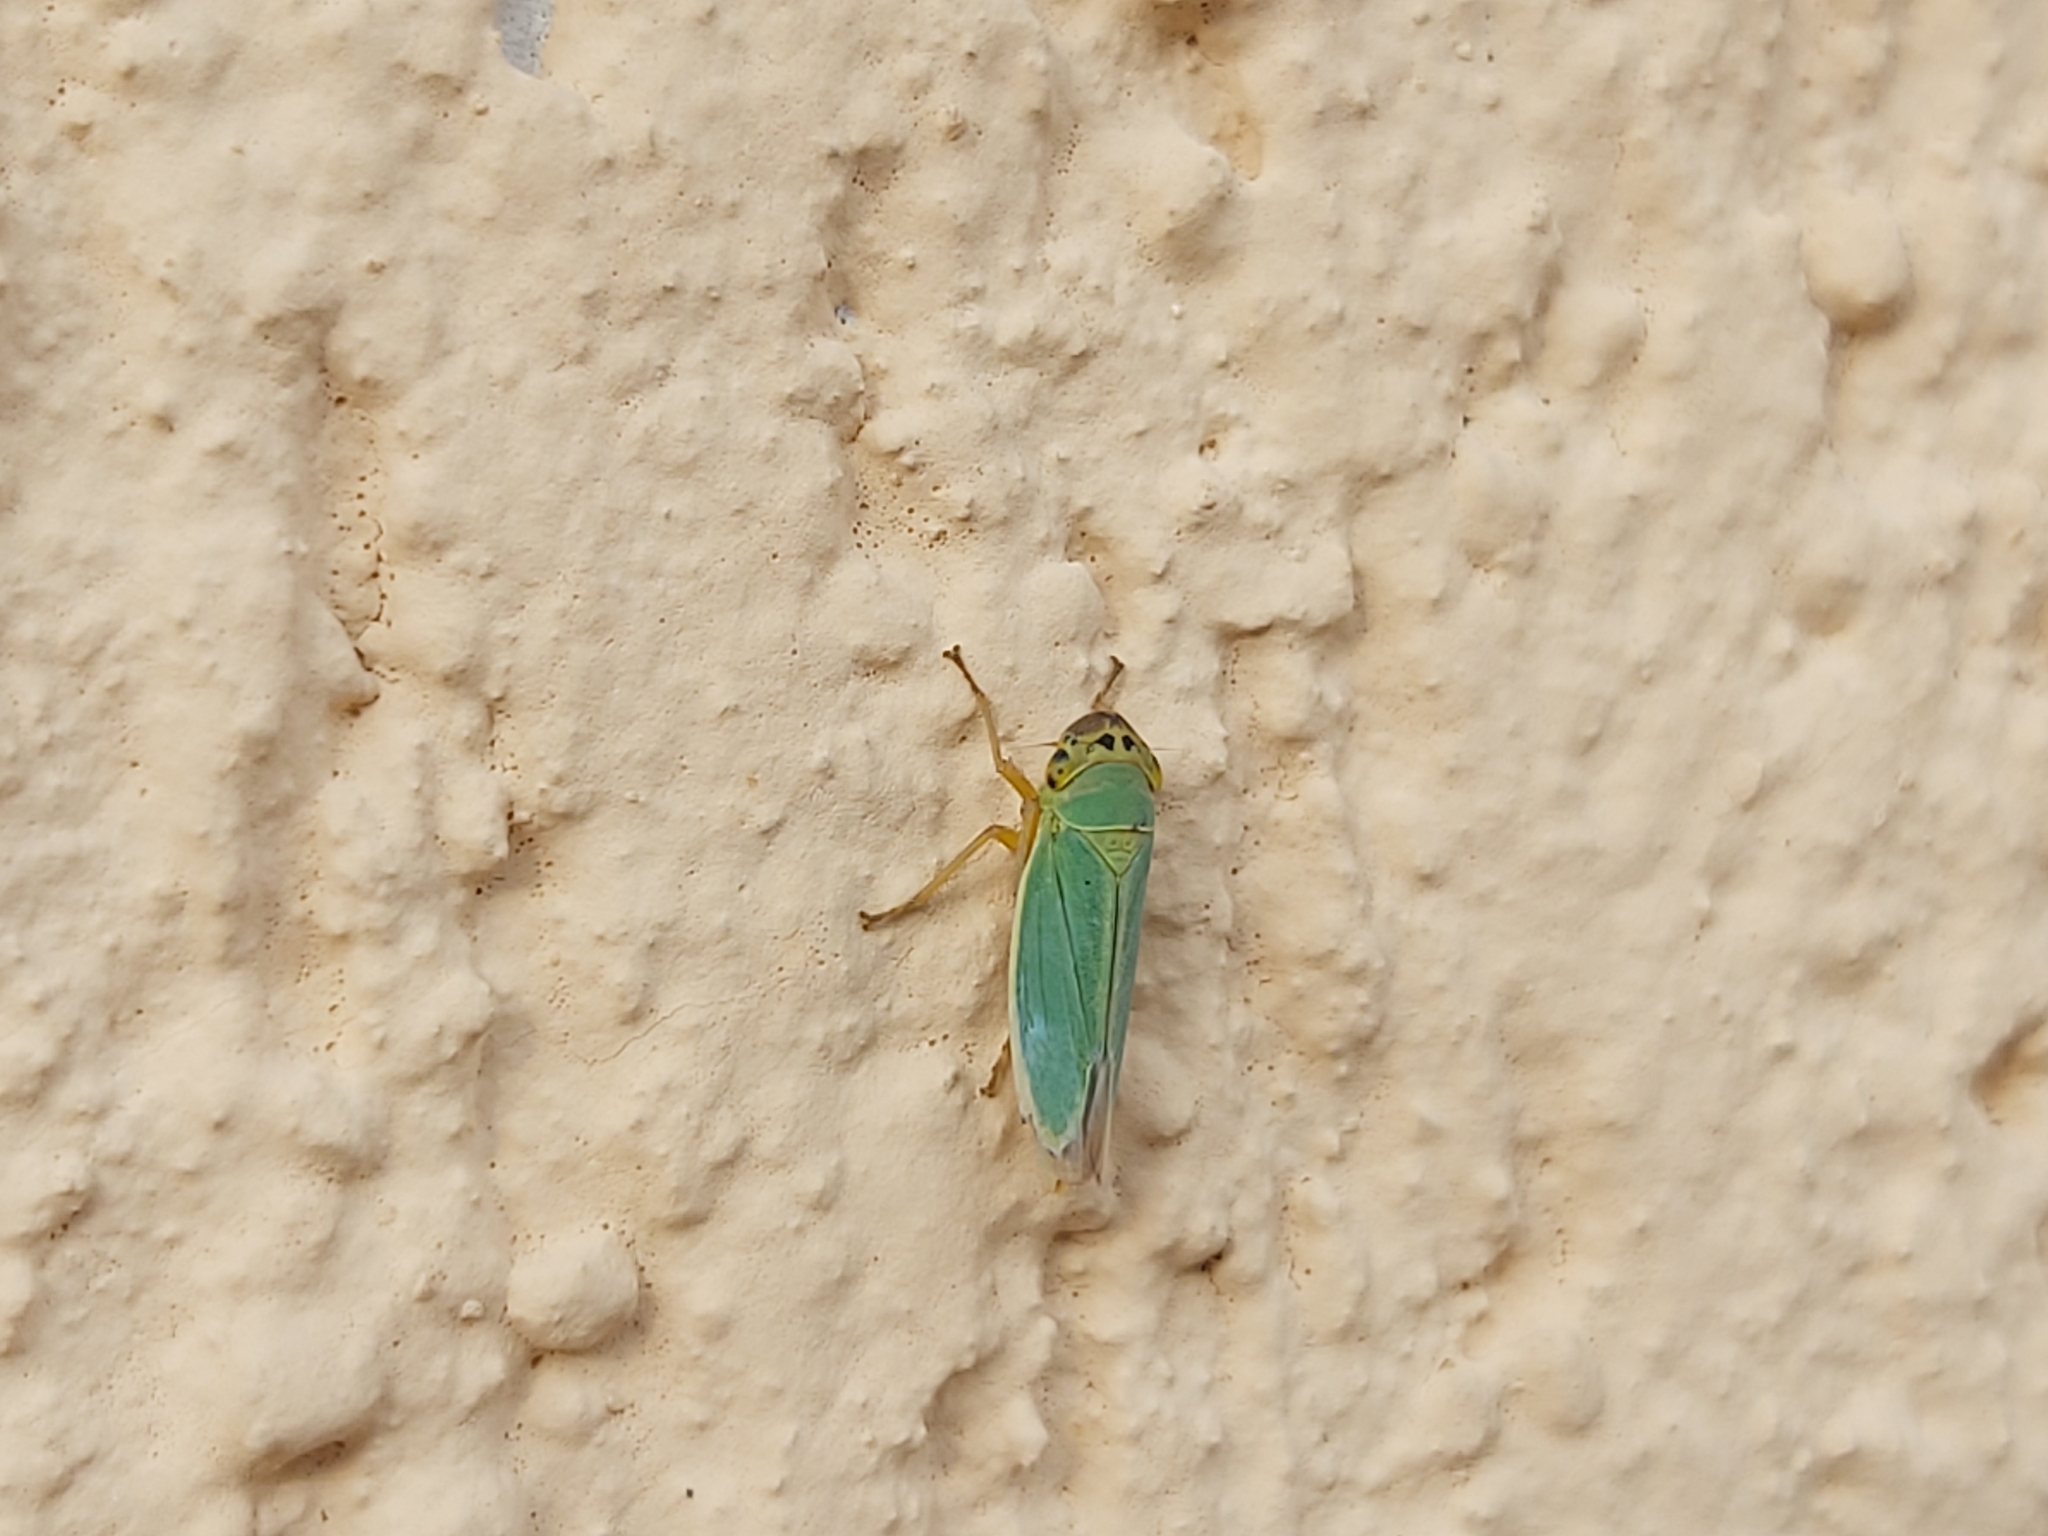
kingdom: Animalia
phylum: Arthropoda
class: Insecta
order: Hemiptera
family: Cicadellidae
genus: Cicadella
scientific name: Cicadella viridis
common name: Leafhopper
